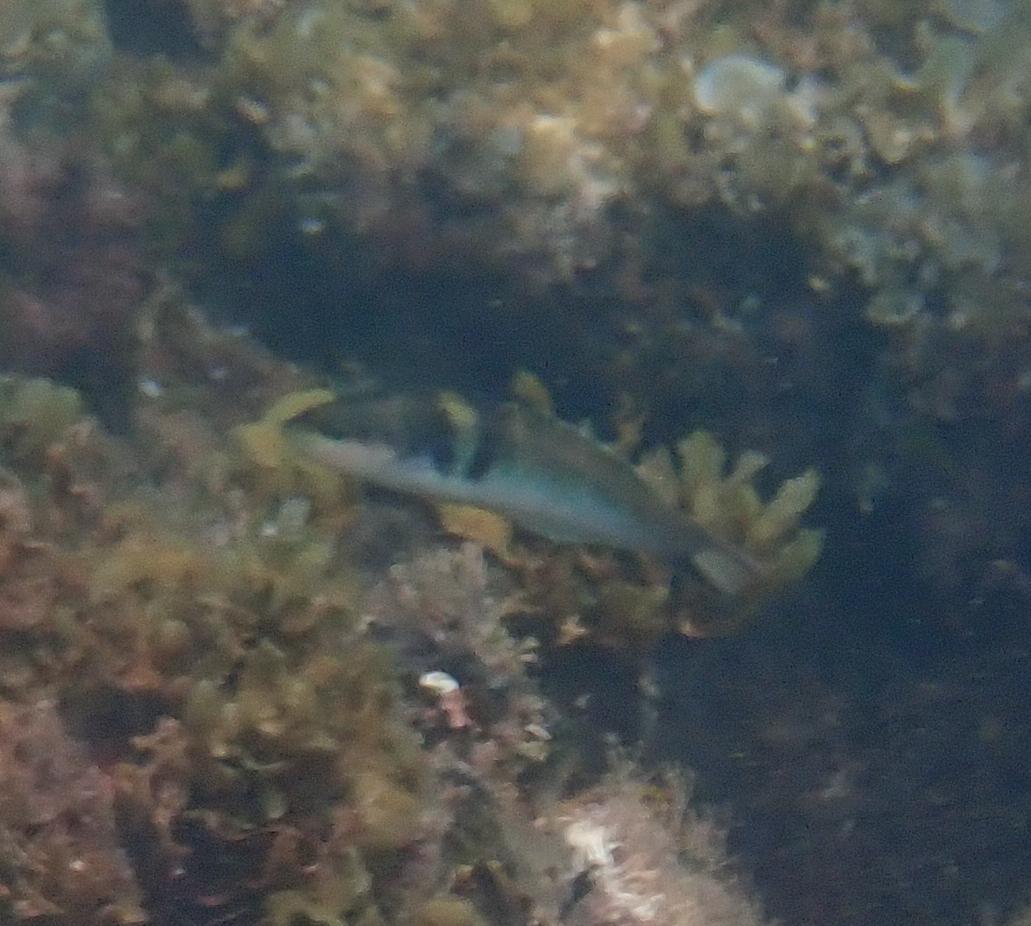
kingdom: Animalia
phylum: Chordata
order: Perciformes
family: Labridae
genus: Thalassoma
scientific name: Thalassoma bifasciatum
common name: Bluehead wrasse
